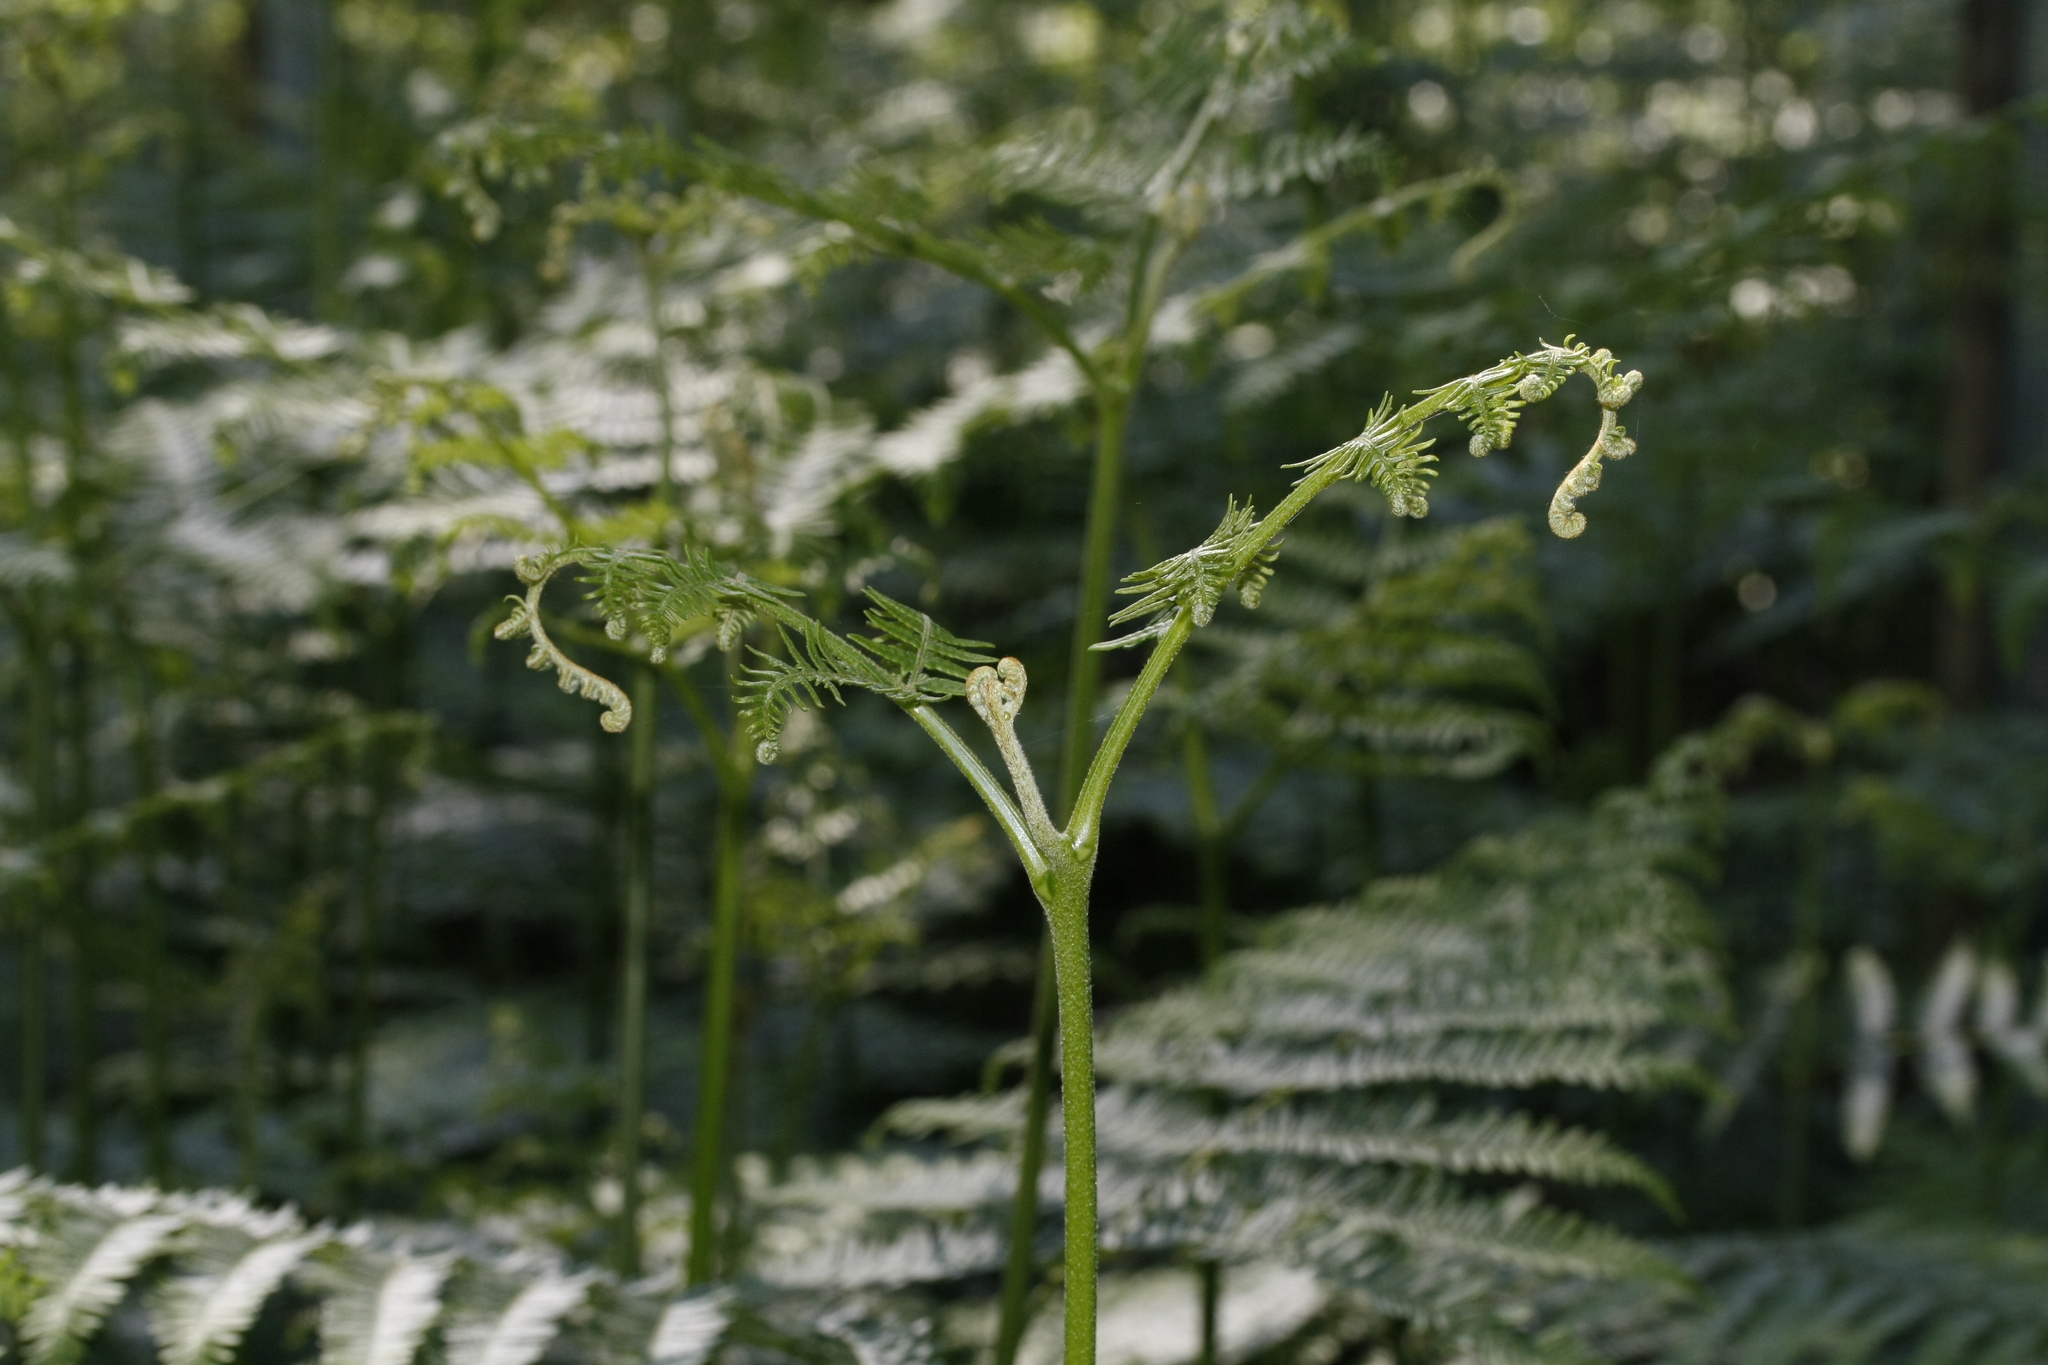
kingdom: Plantae
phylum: Tracheophyta
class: Polypodiopsida
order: Polypodiales
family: Dennstaedtiaceae
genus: Pteridium
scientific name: Pteridium aquilinum
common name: Bracken
